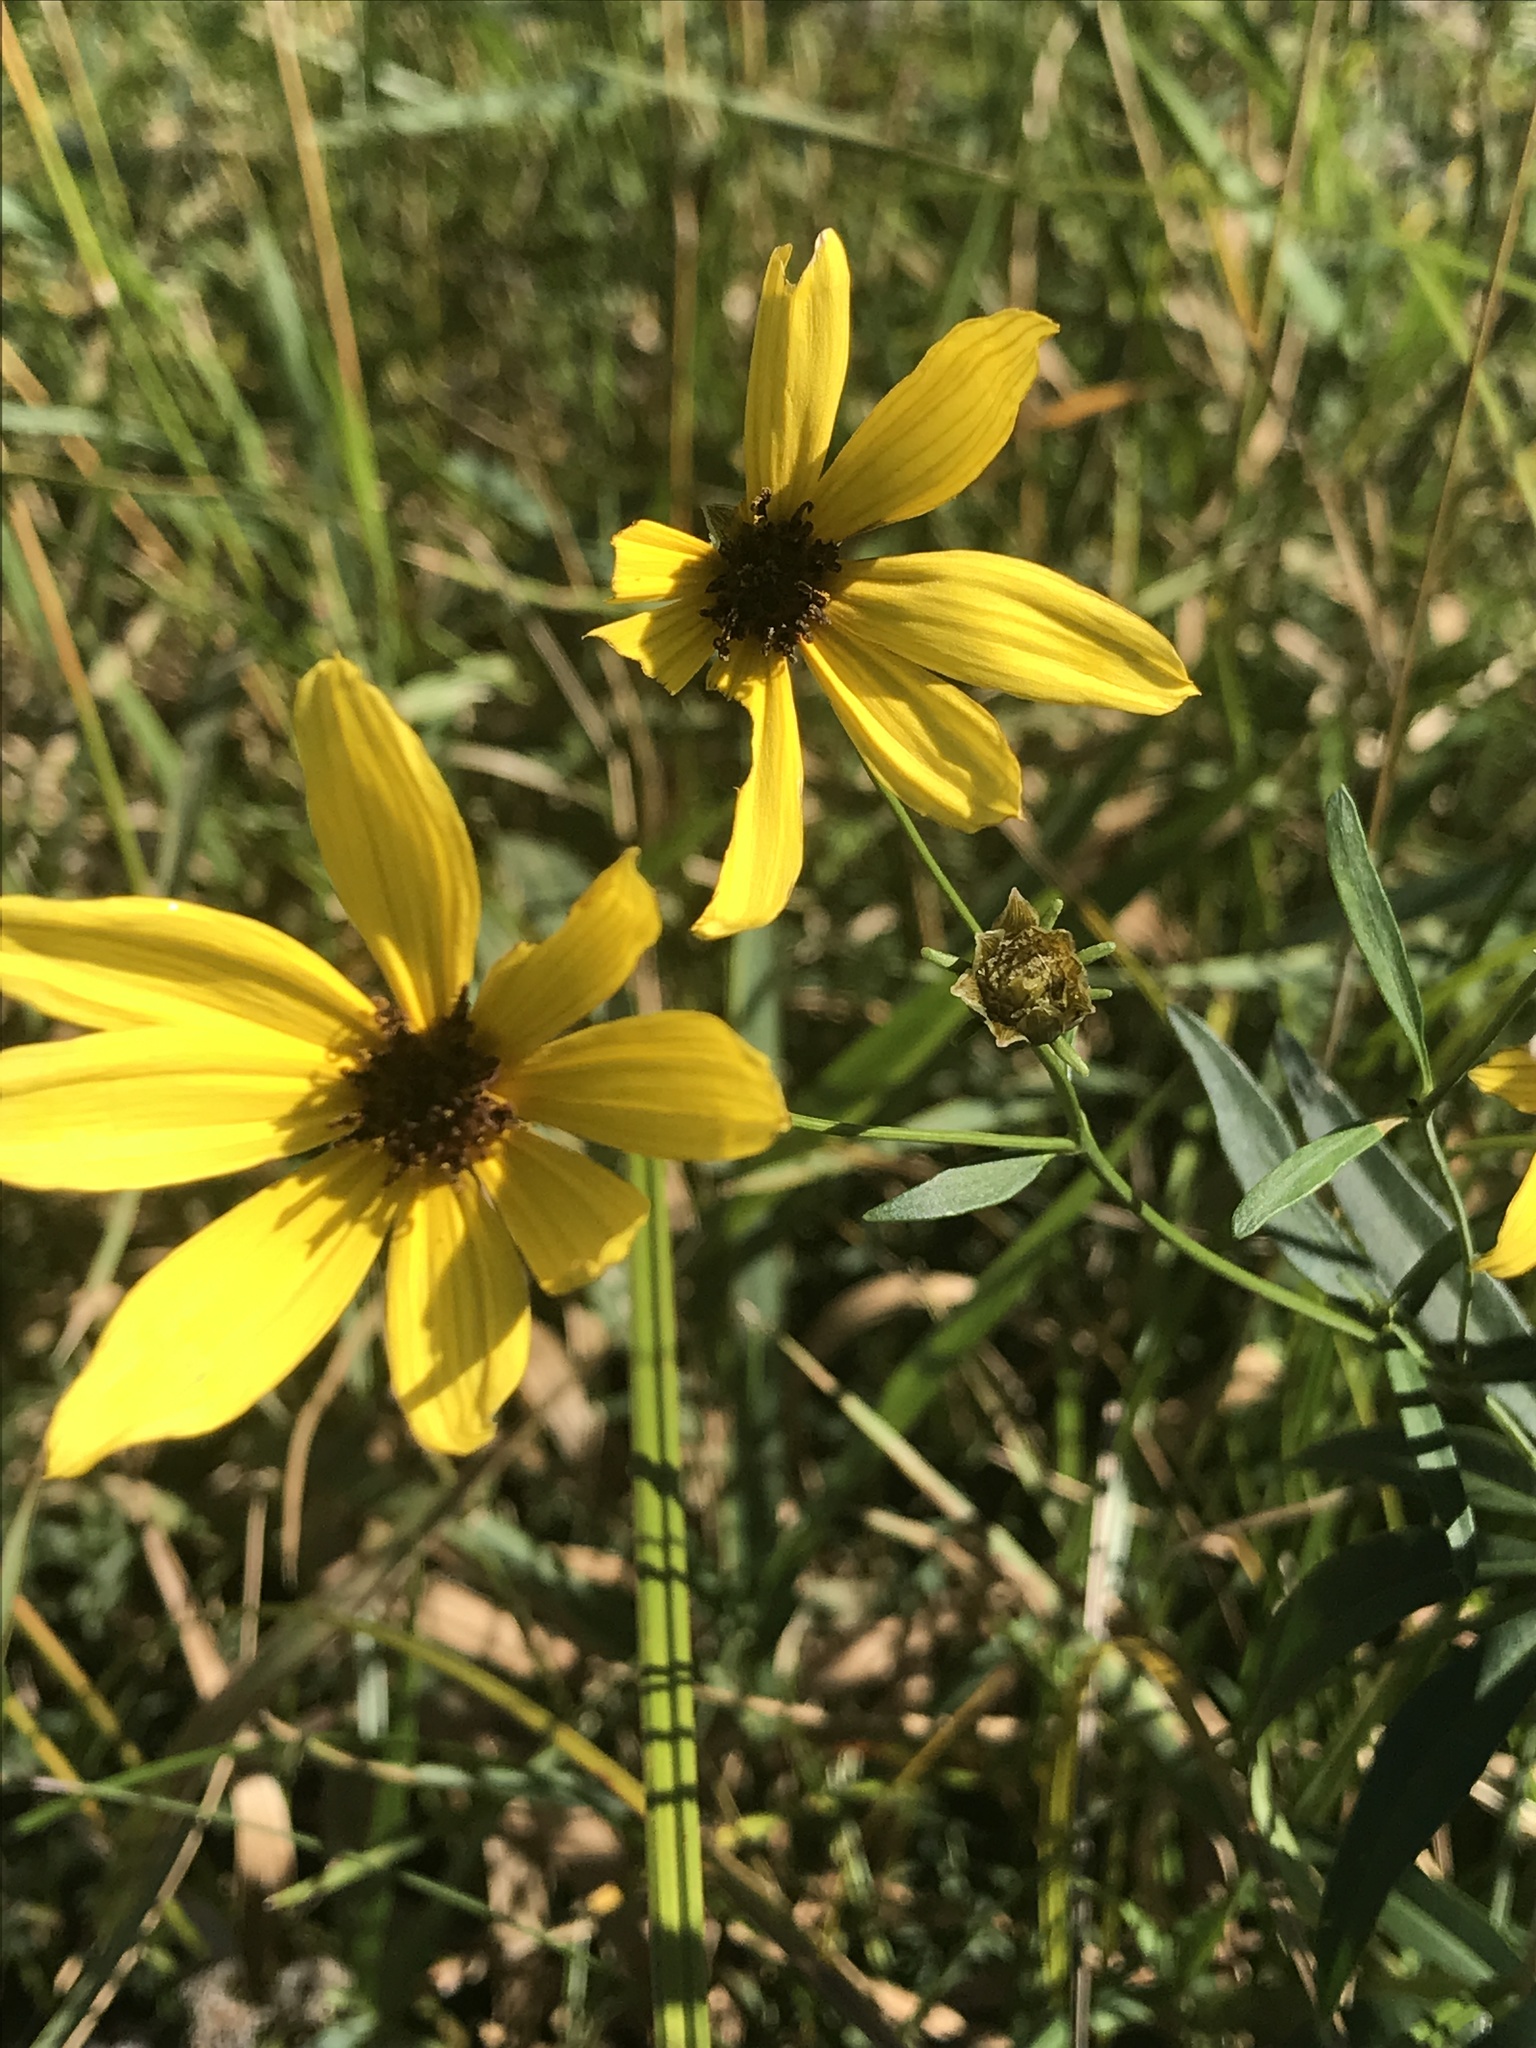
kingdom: Plantae
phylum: Tracheophyta
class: Magnoliopsida
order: Asterales
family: Asteraceae
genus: Coreopsis
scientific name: Coreopsis tripteris
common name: Tall coreopsis
